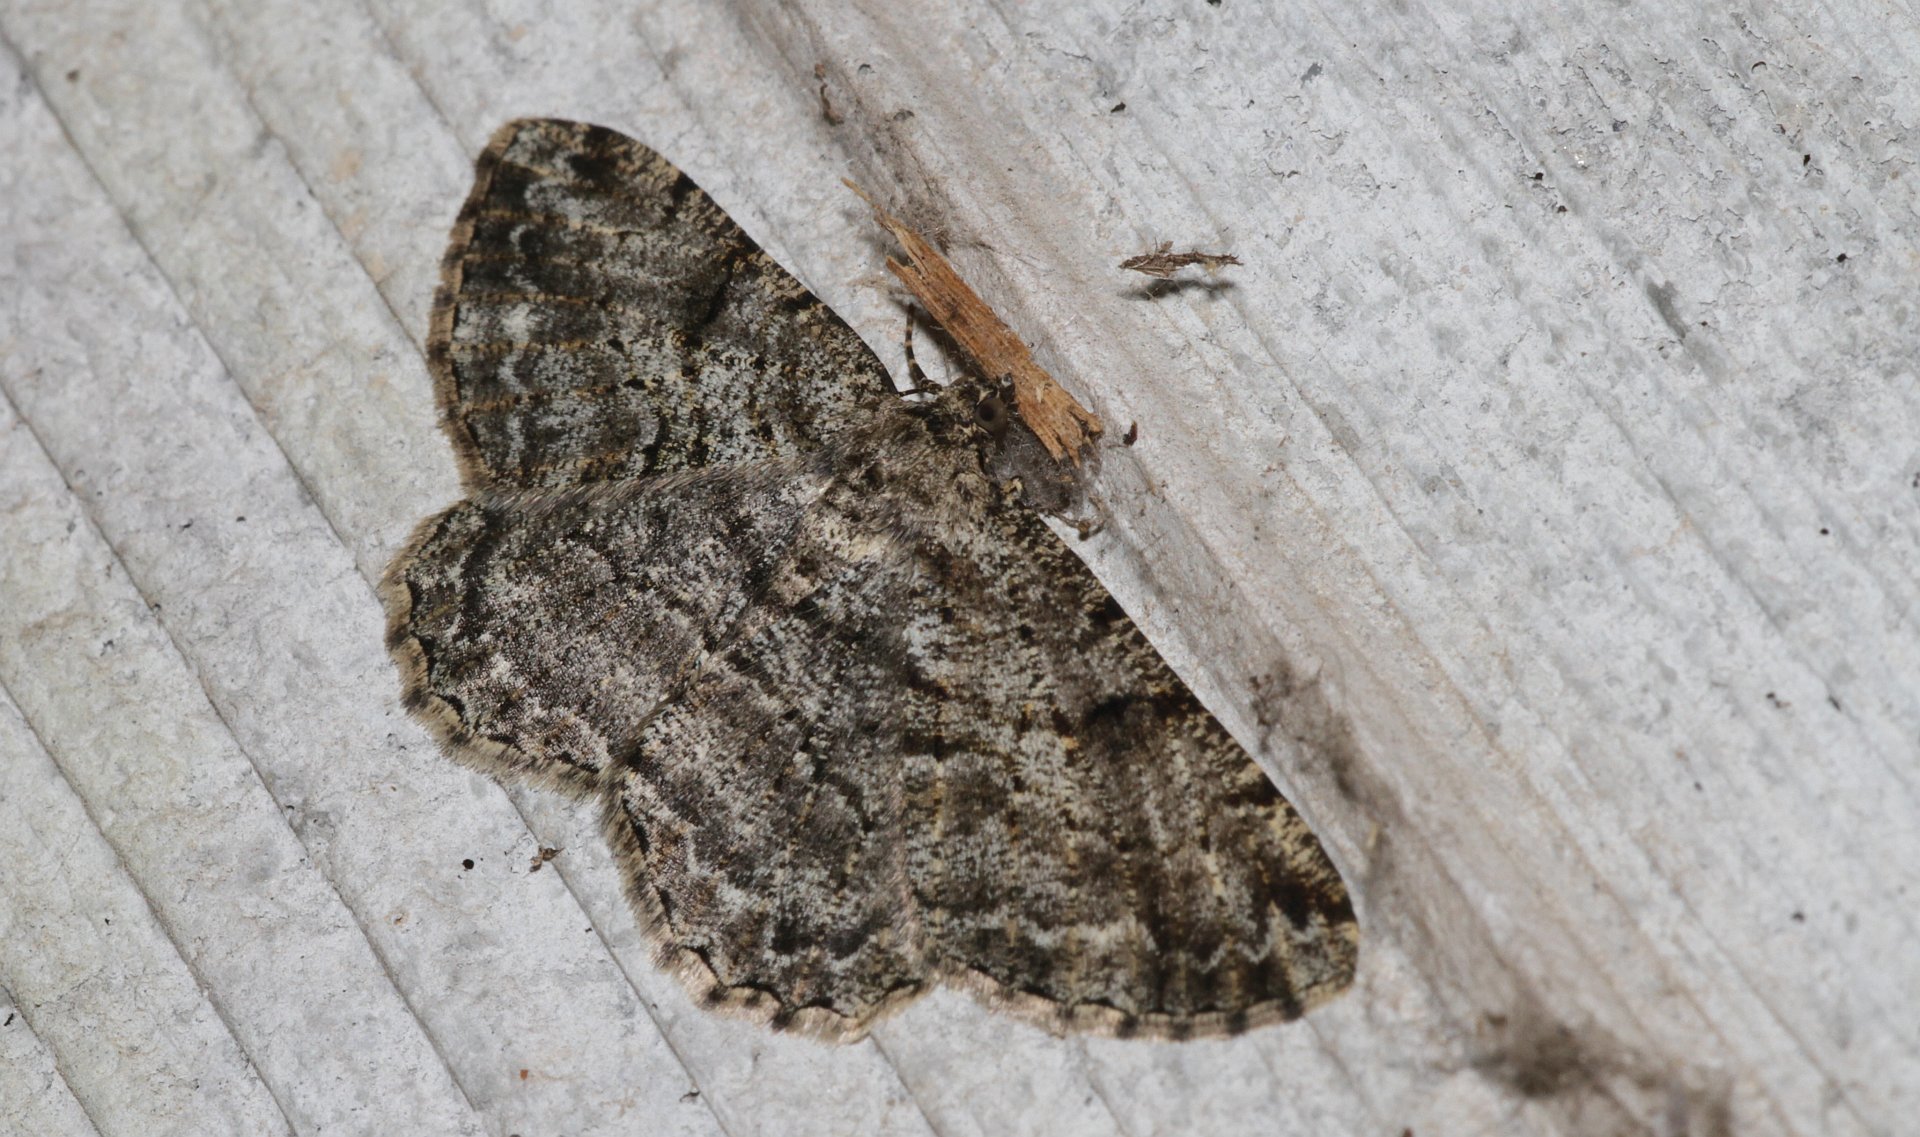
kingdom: Animalia
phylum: Arthropoda
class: Insecta
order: Lepidoptera
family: Geometridae
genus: Peribatodes
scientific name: Peribatodes rhomboidaria
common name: Willow beauty
